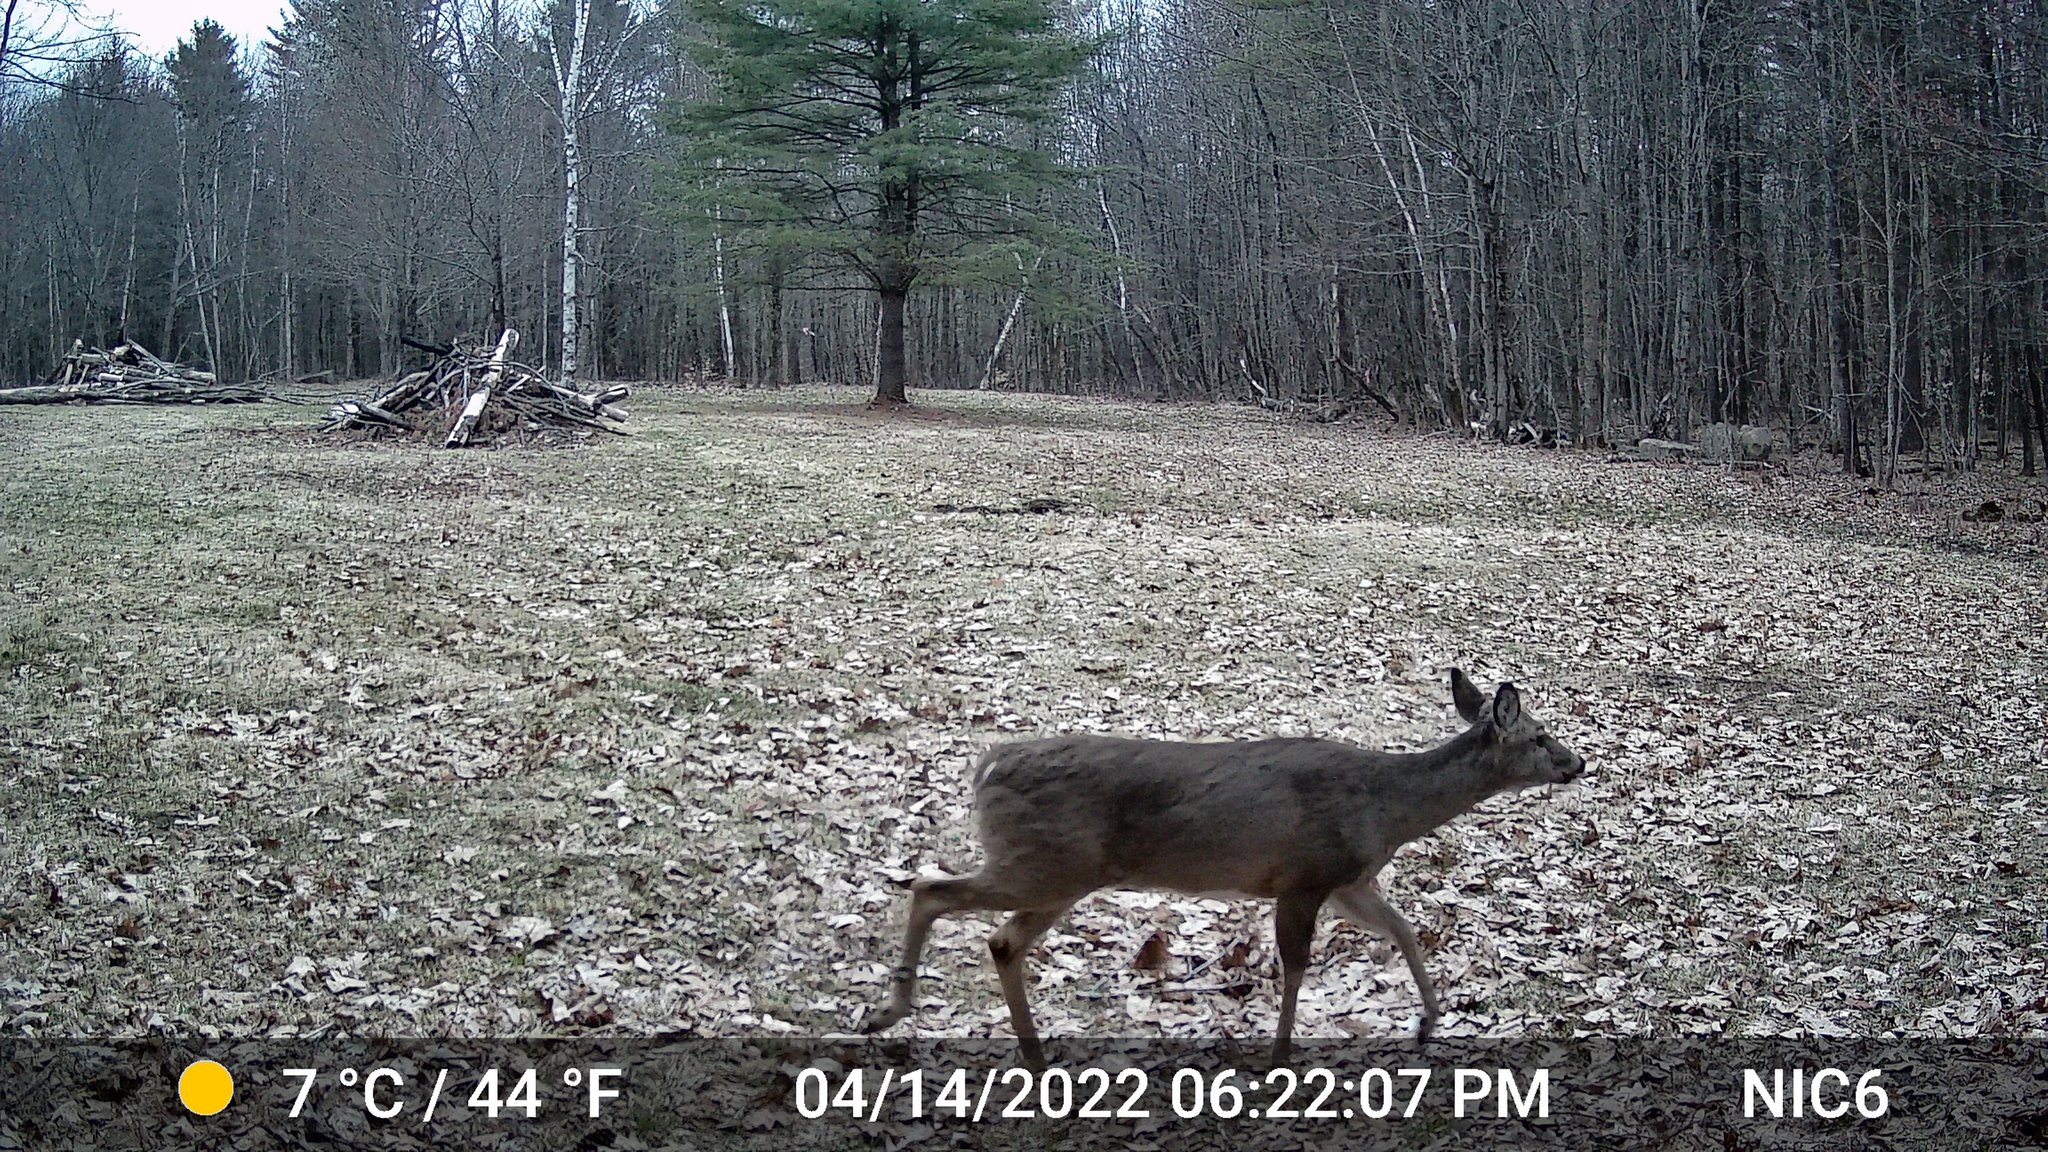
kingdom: Animalia
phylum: Chordata
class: Mammalia
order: Artiodactyla
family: Cervidae
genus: Odocoileus
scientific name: Odocoileus virginianus
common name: White-tailed deer
